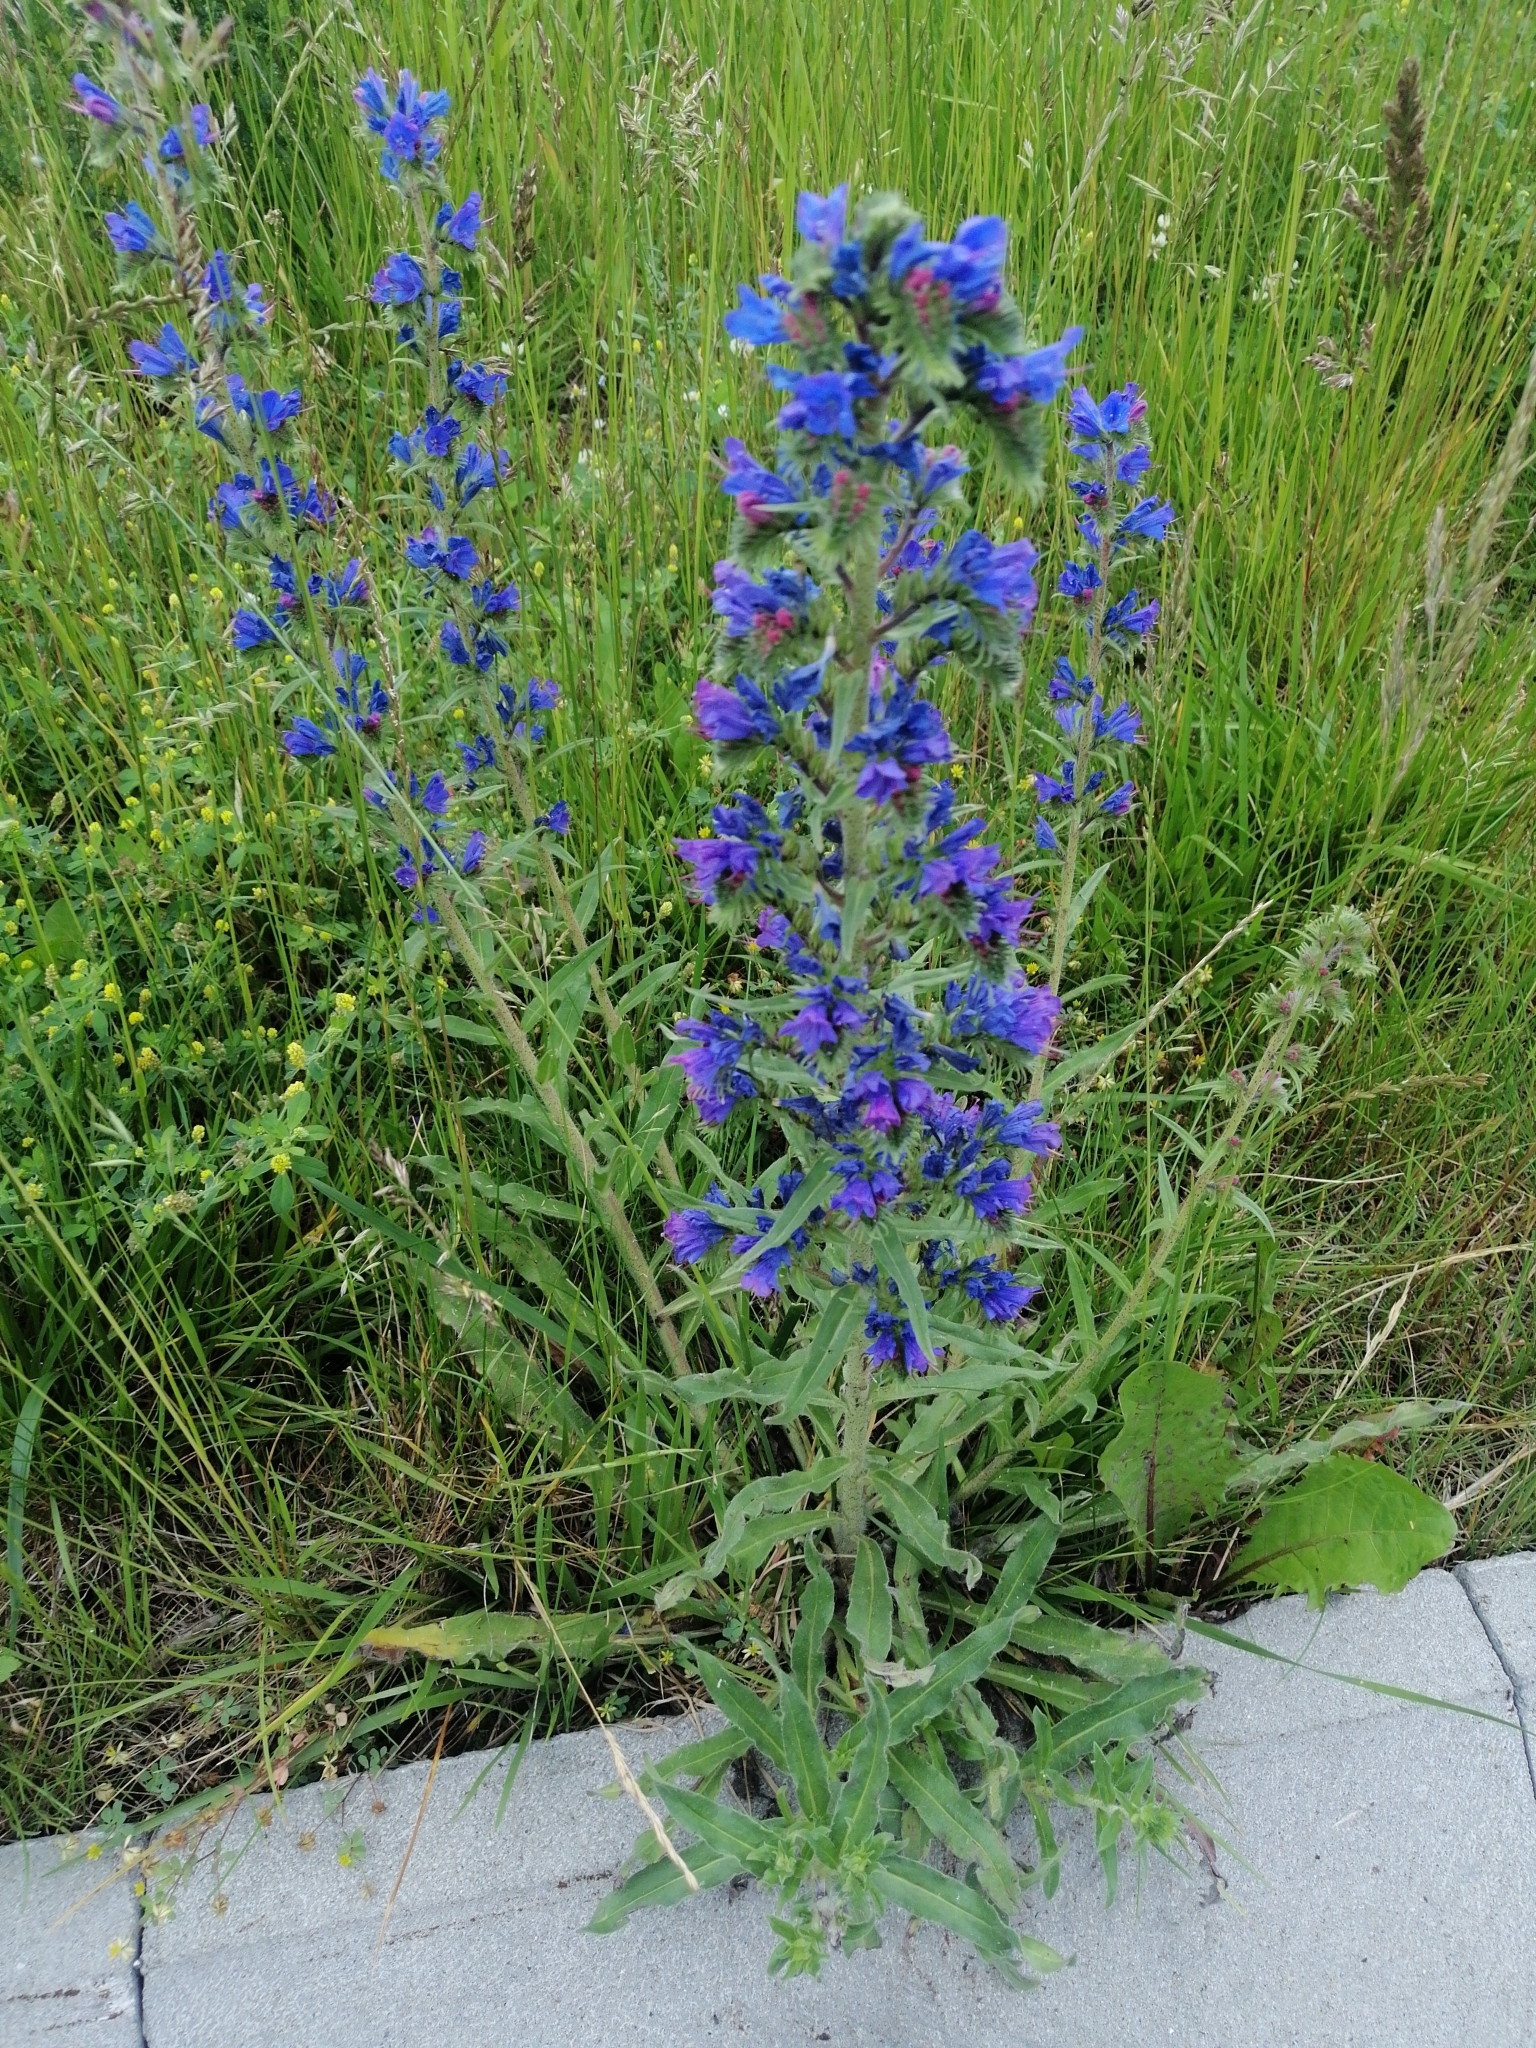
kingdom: Plantae
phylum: Tracheophyta
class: Magnoliopsida
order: Boraginales
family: Boraginaceae
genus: Echium
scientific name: Echium vulgare
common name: Common viper's bugloss
